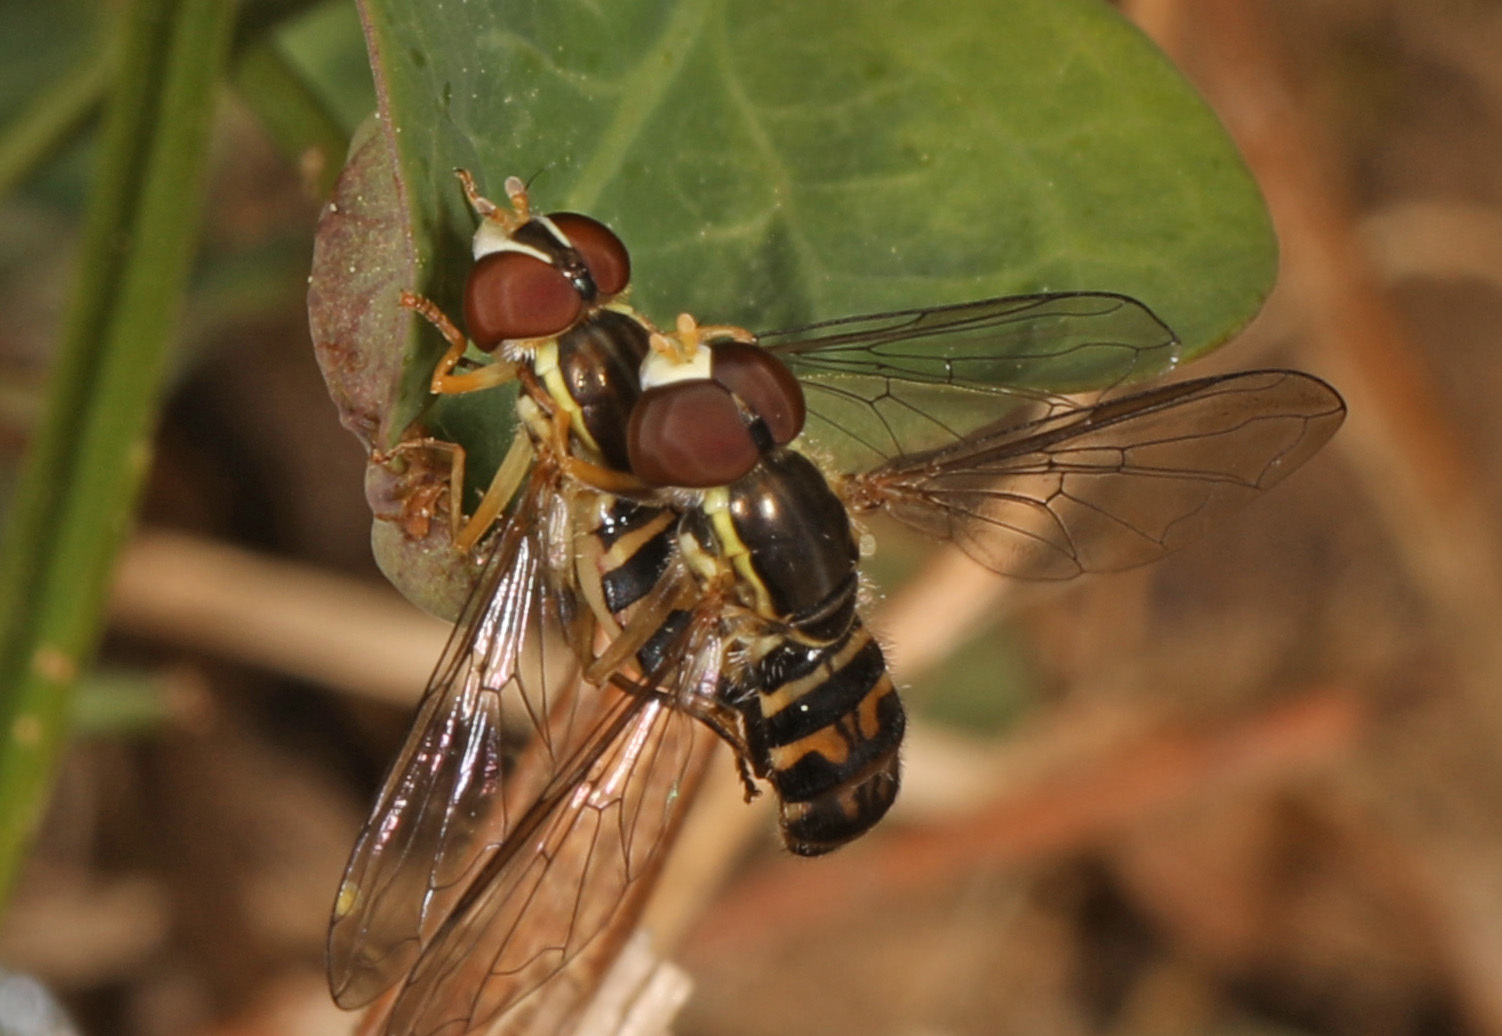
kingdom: Animalia
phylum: Arthropoda
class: Insecta
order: Diptera
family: Syrphidae
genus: Toxomerus
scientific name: Toxomerus geminatus
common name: Eastern calligrapher
